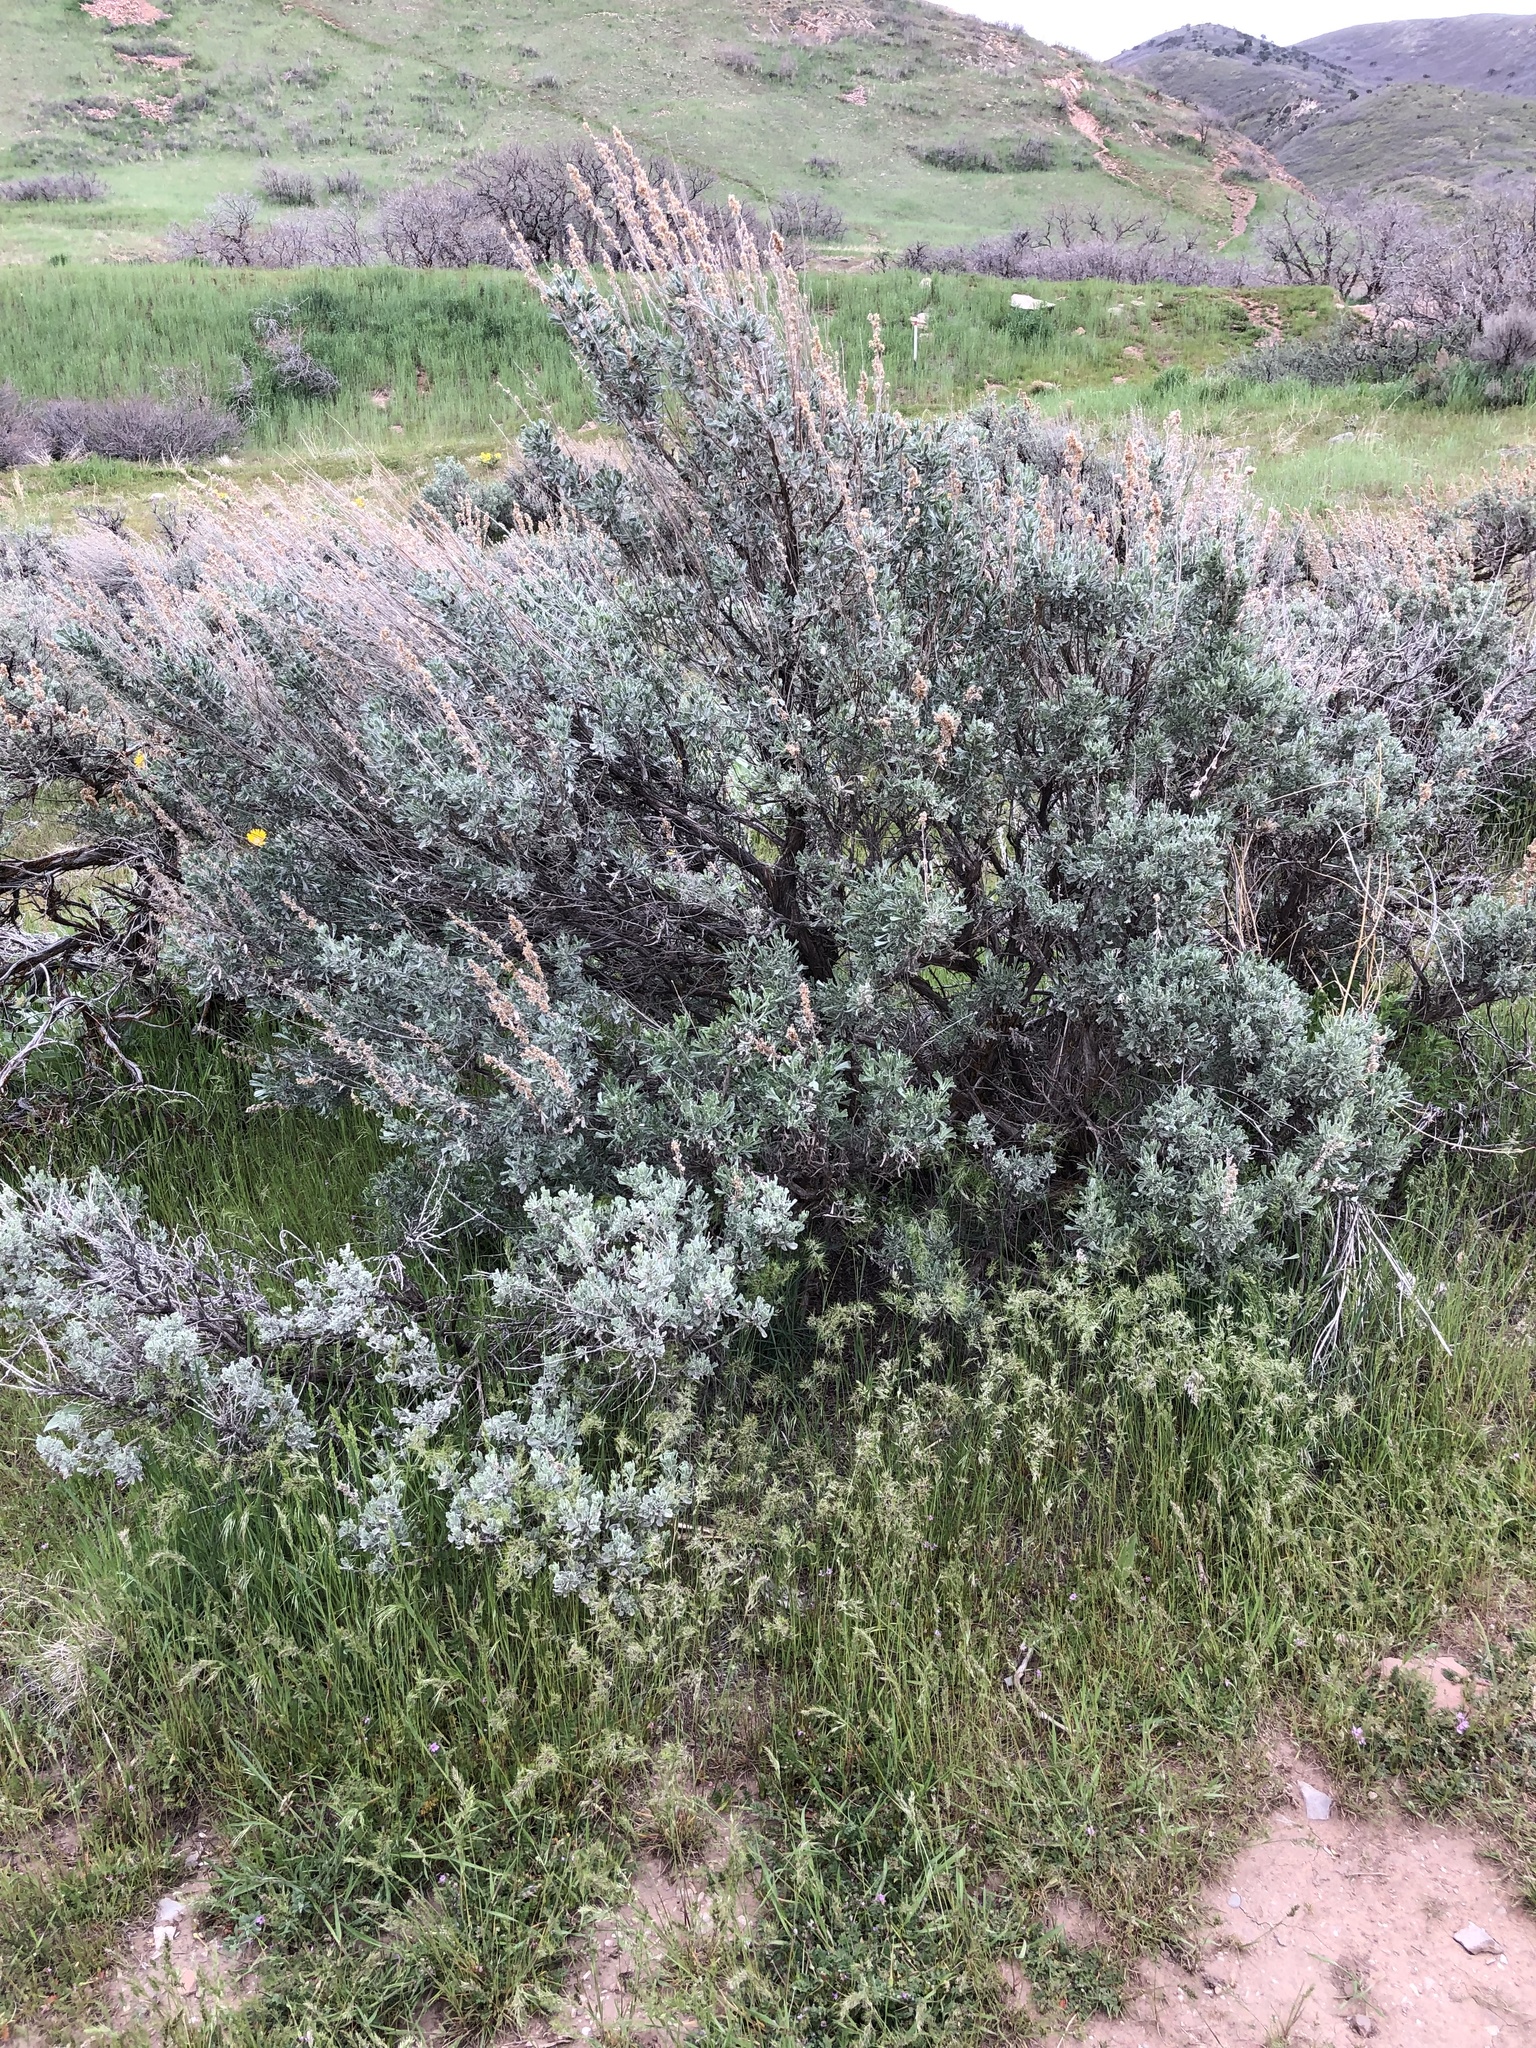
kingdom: Plantae
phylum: Tracheophyta
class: Magnoliopsida
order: Asterales
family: Asteraceae
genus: Artemisia
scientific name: Artemisia tridentata
